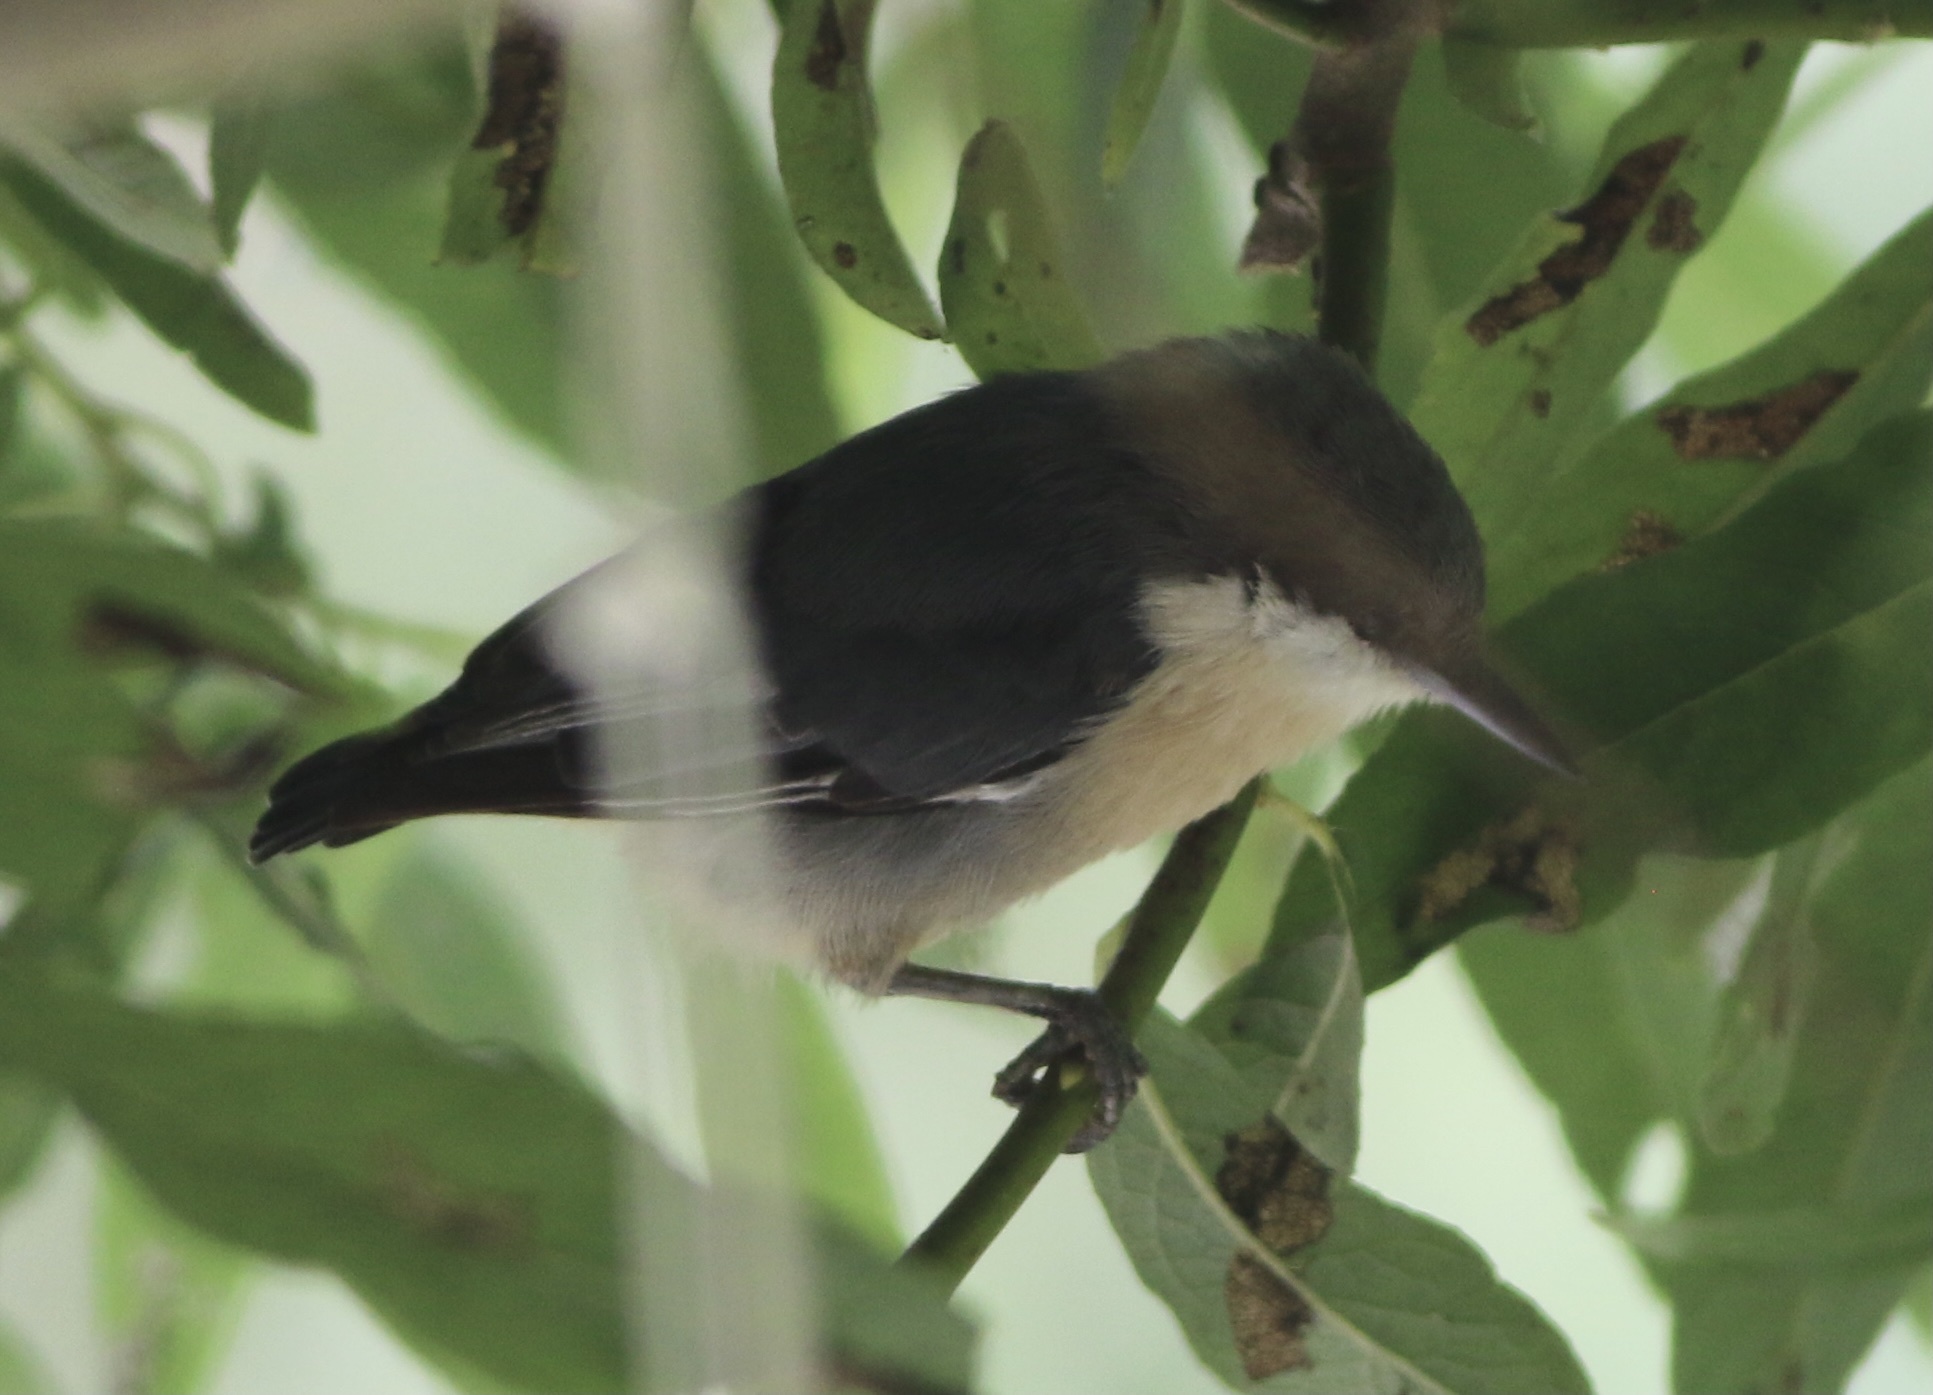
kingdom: Animalia
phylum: Chordata
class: Aves
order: Passeriformes
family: Sittidae
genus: Sitta
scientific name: Sitta pygmaea
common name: Pygmy nuthatch
